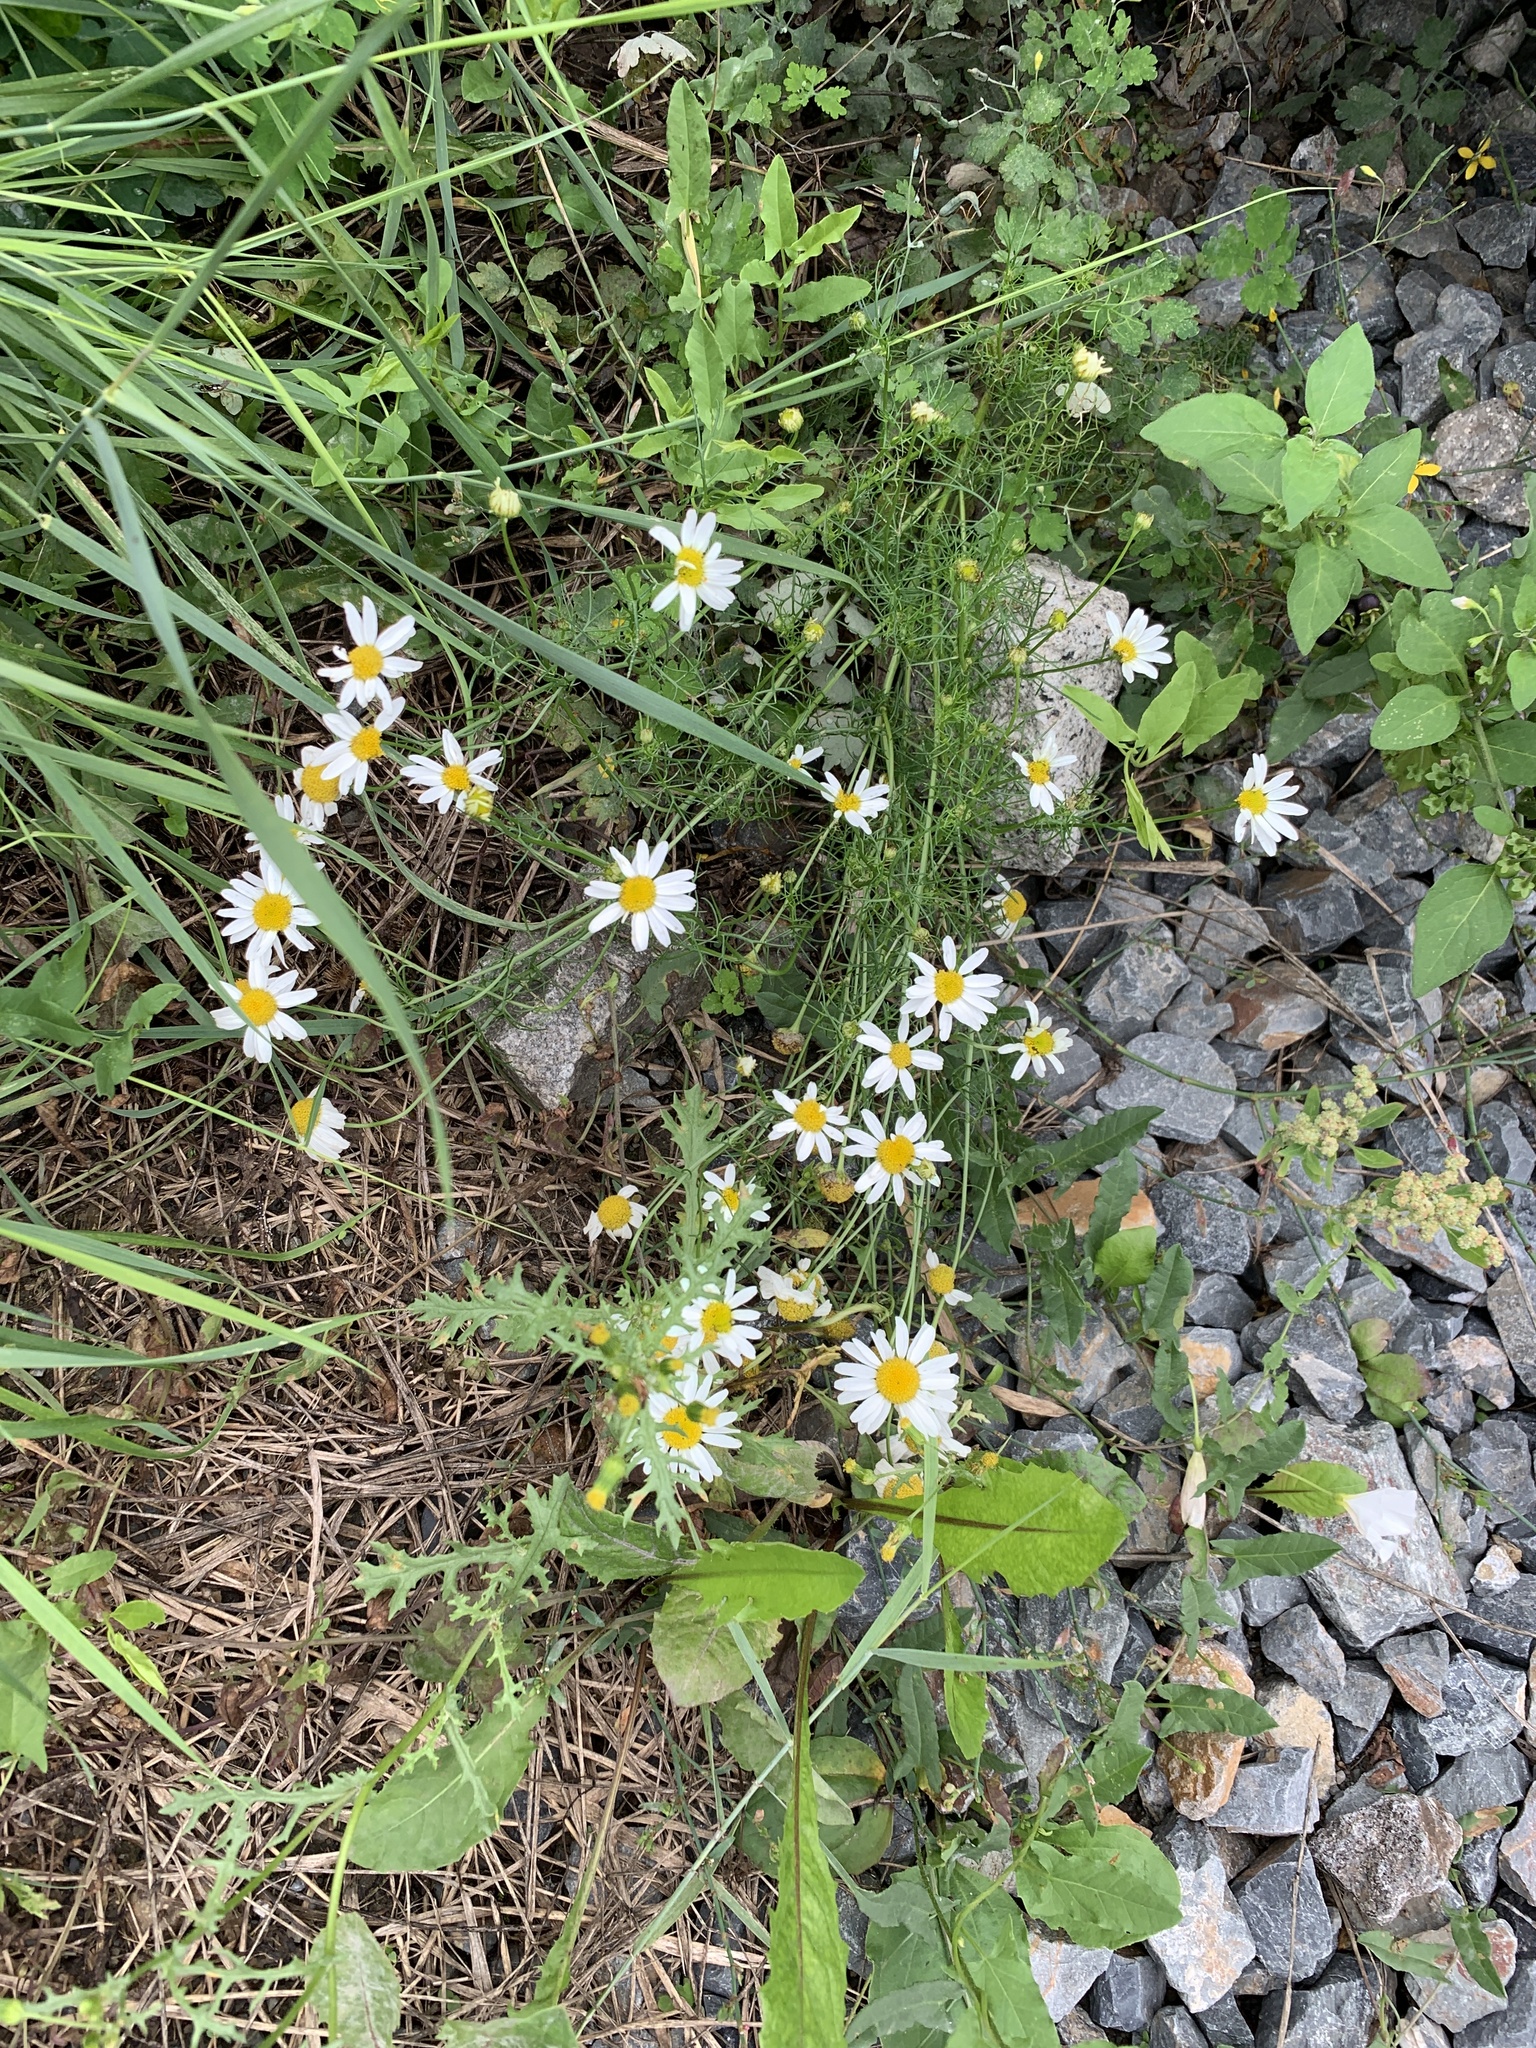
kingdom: Plantae
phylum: Tracheophyta
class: Magnoliopsida
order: Asterales
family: Asteraceae
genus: Tripleurospermum
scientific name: Tripleurospermum inodorum
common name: Scentless mayweed
